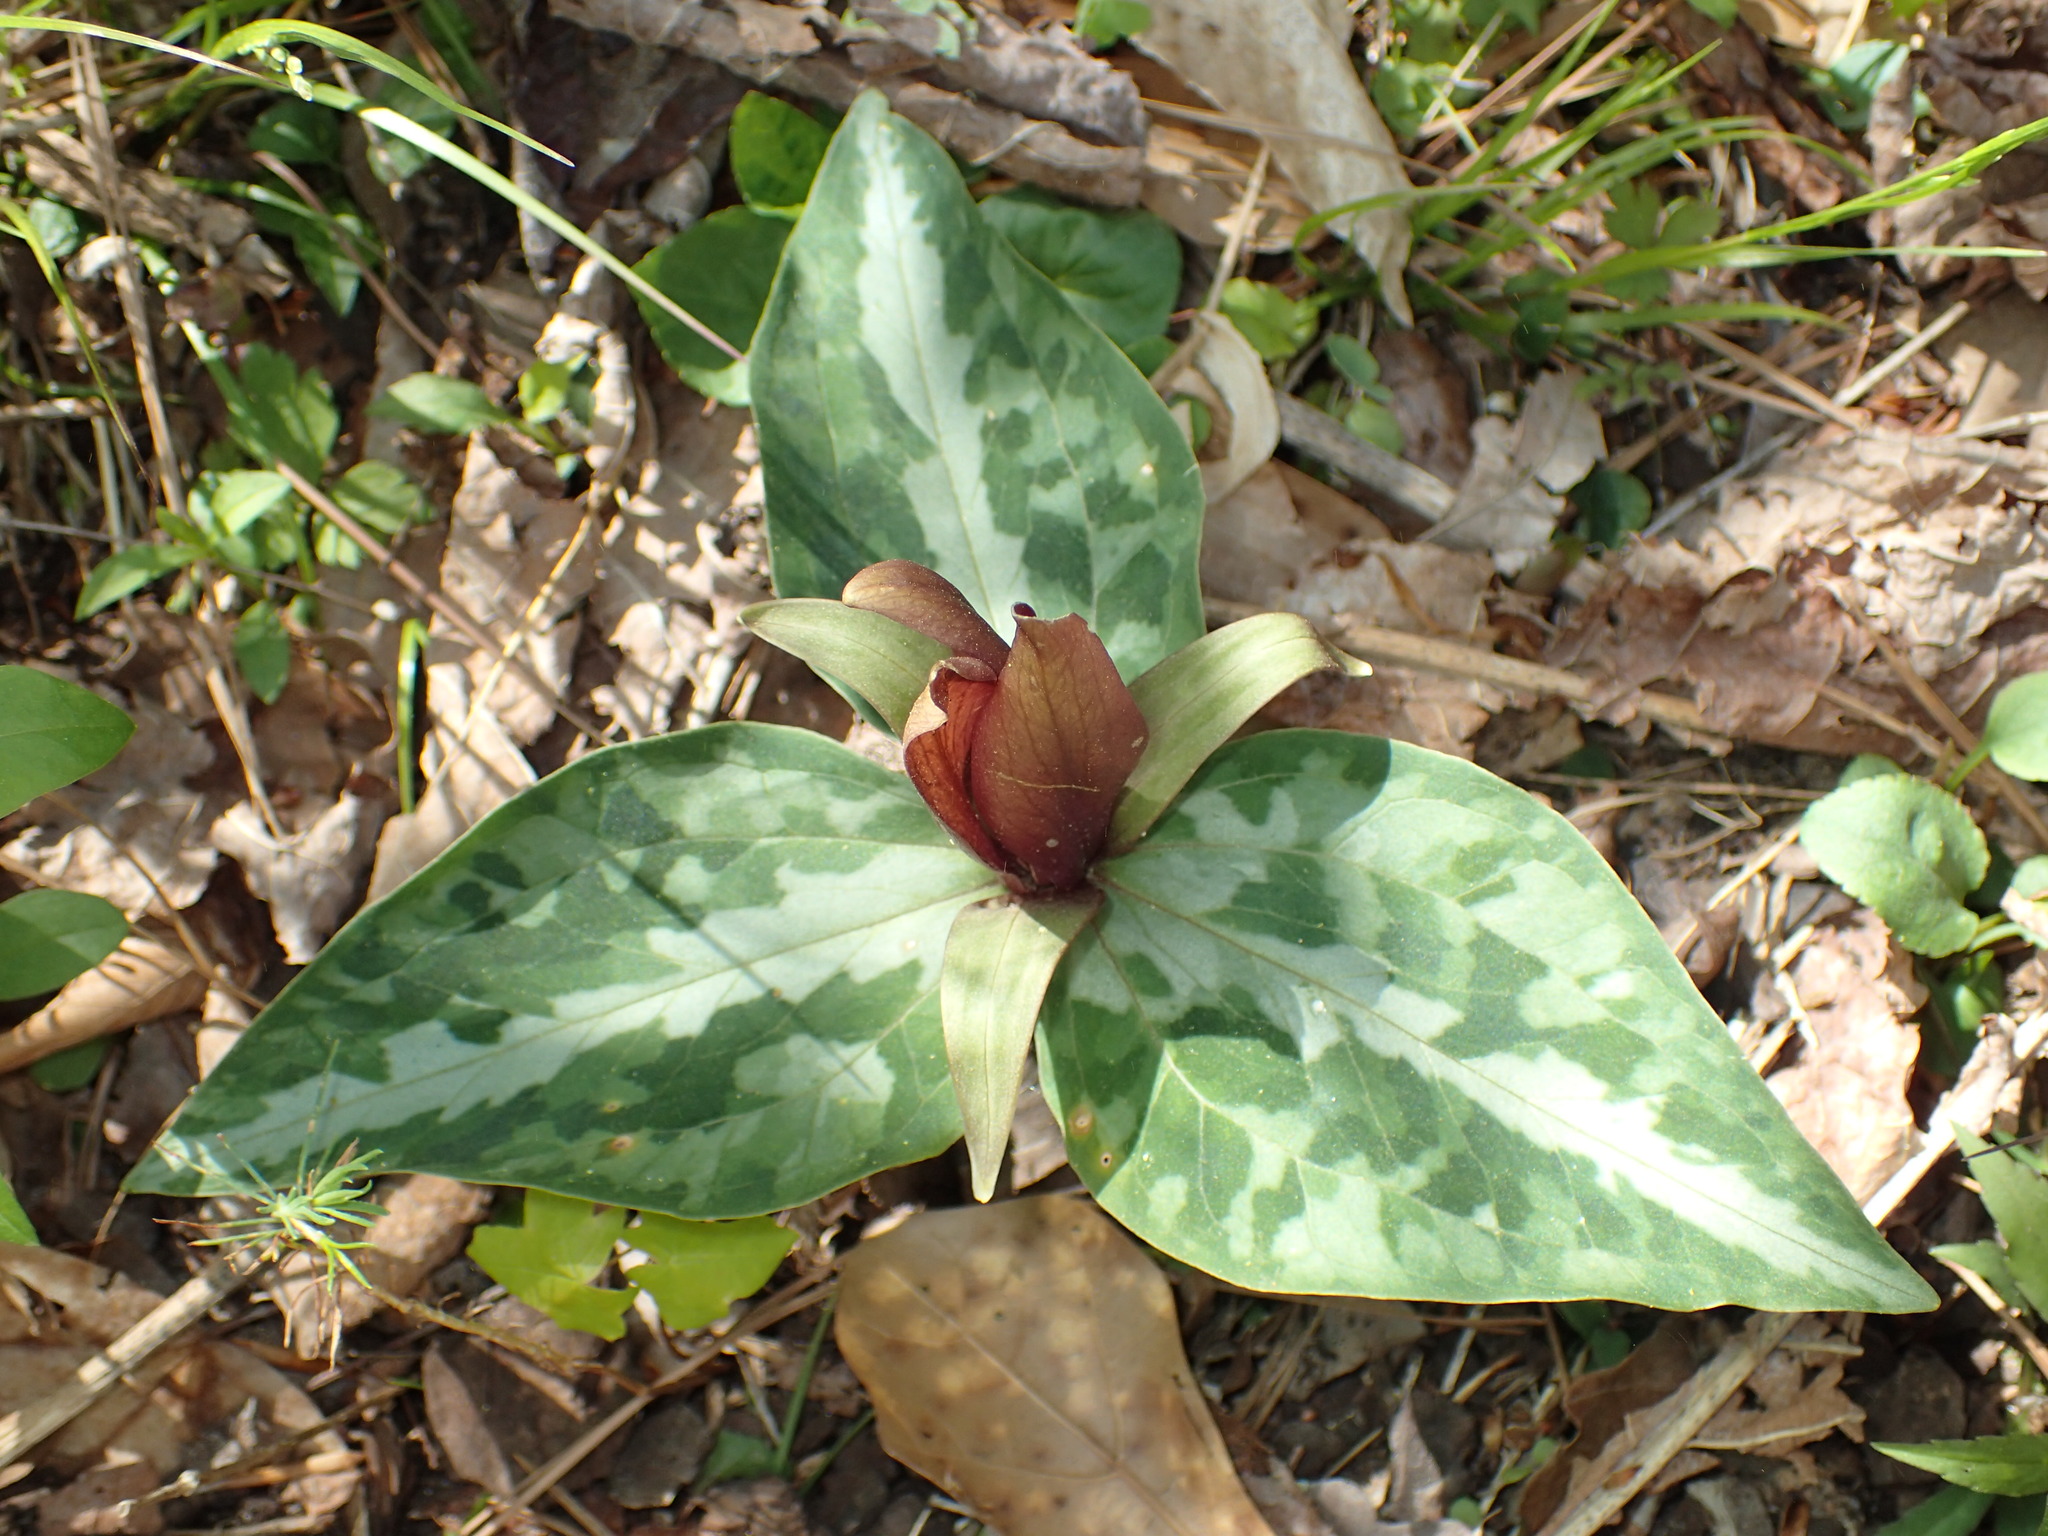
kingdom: Plantae
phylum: Tracheophyta
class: Liliopsida
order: Liliales
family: Melanthiaceae
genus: Trillium
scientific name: Trillium underwoodii
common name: Longbract wakerobin
